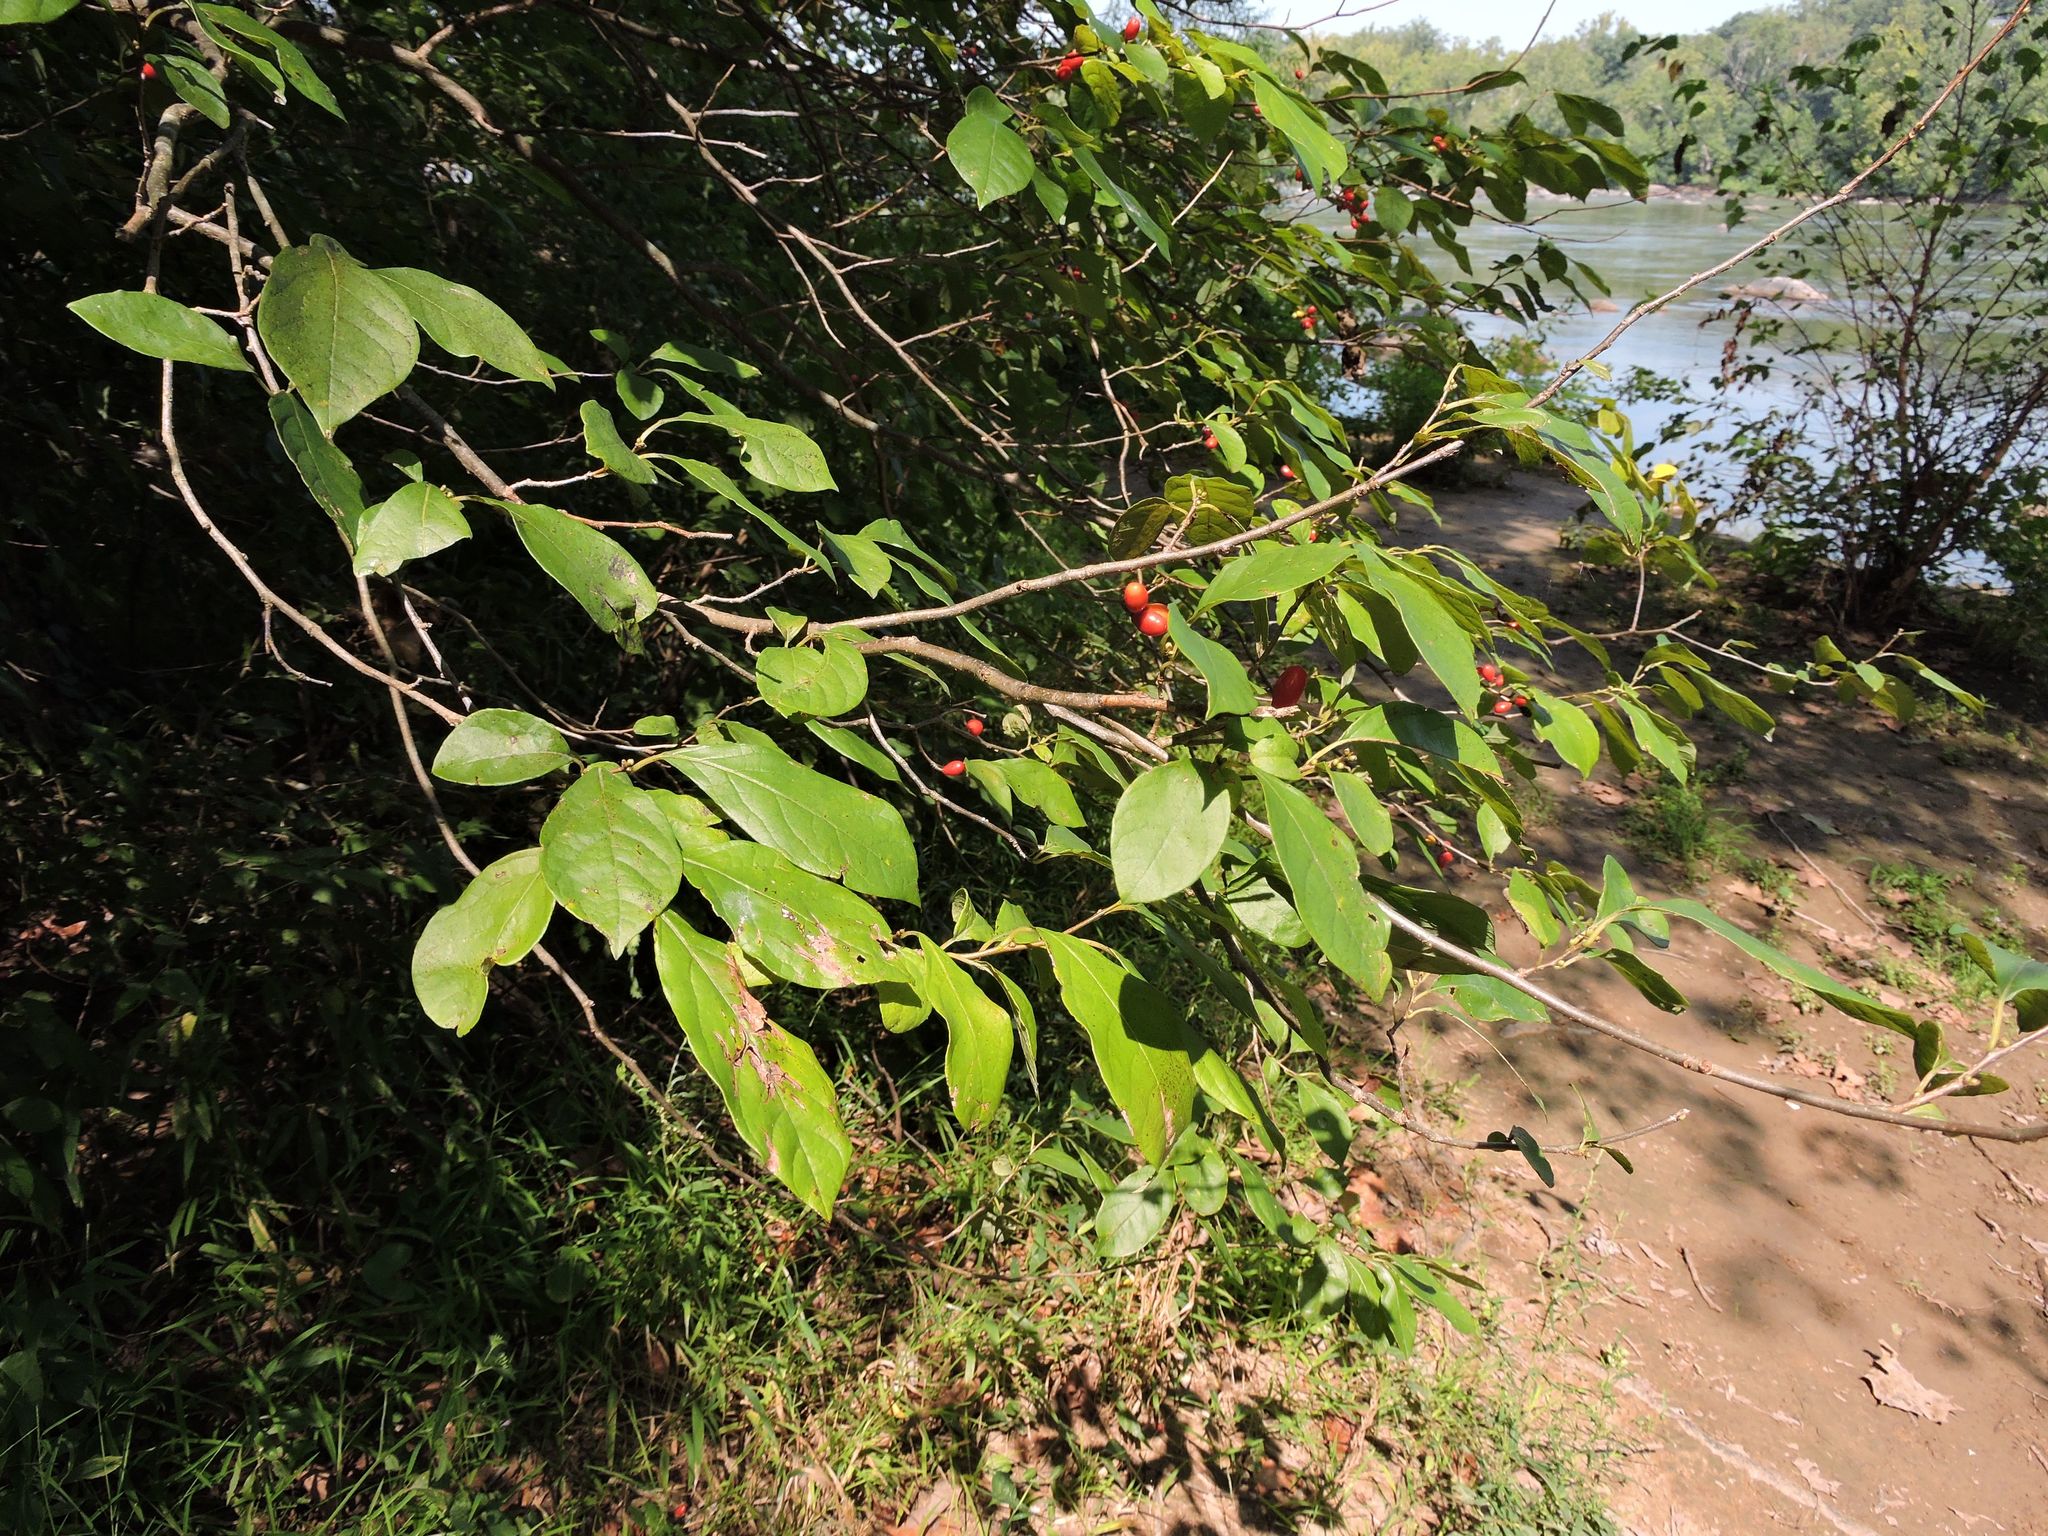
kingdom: Plantae
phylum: Tracheophyta
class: Magnoliopsida
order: Laurales
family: Lauraceae
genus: Lindera
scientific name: Lindera benzoin
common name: Spicebush
